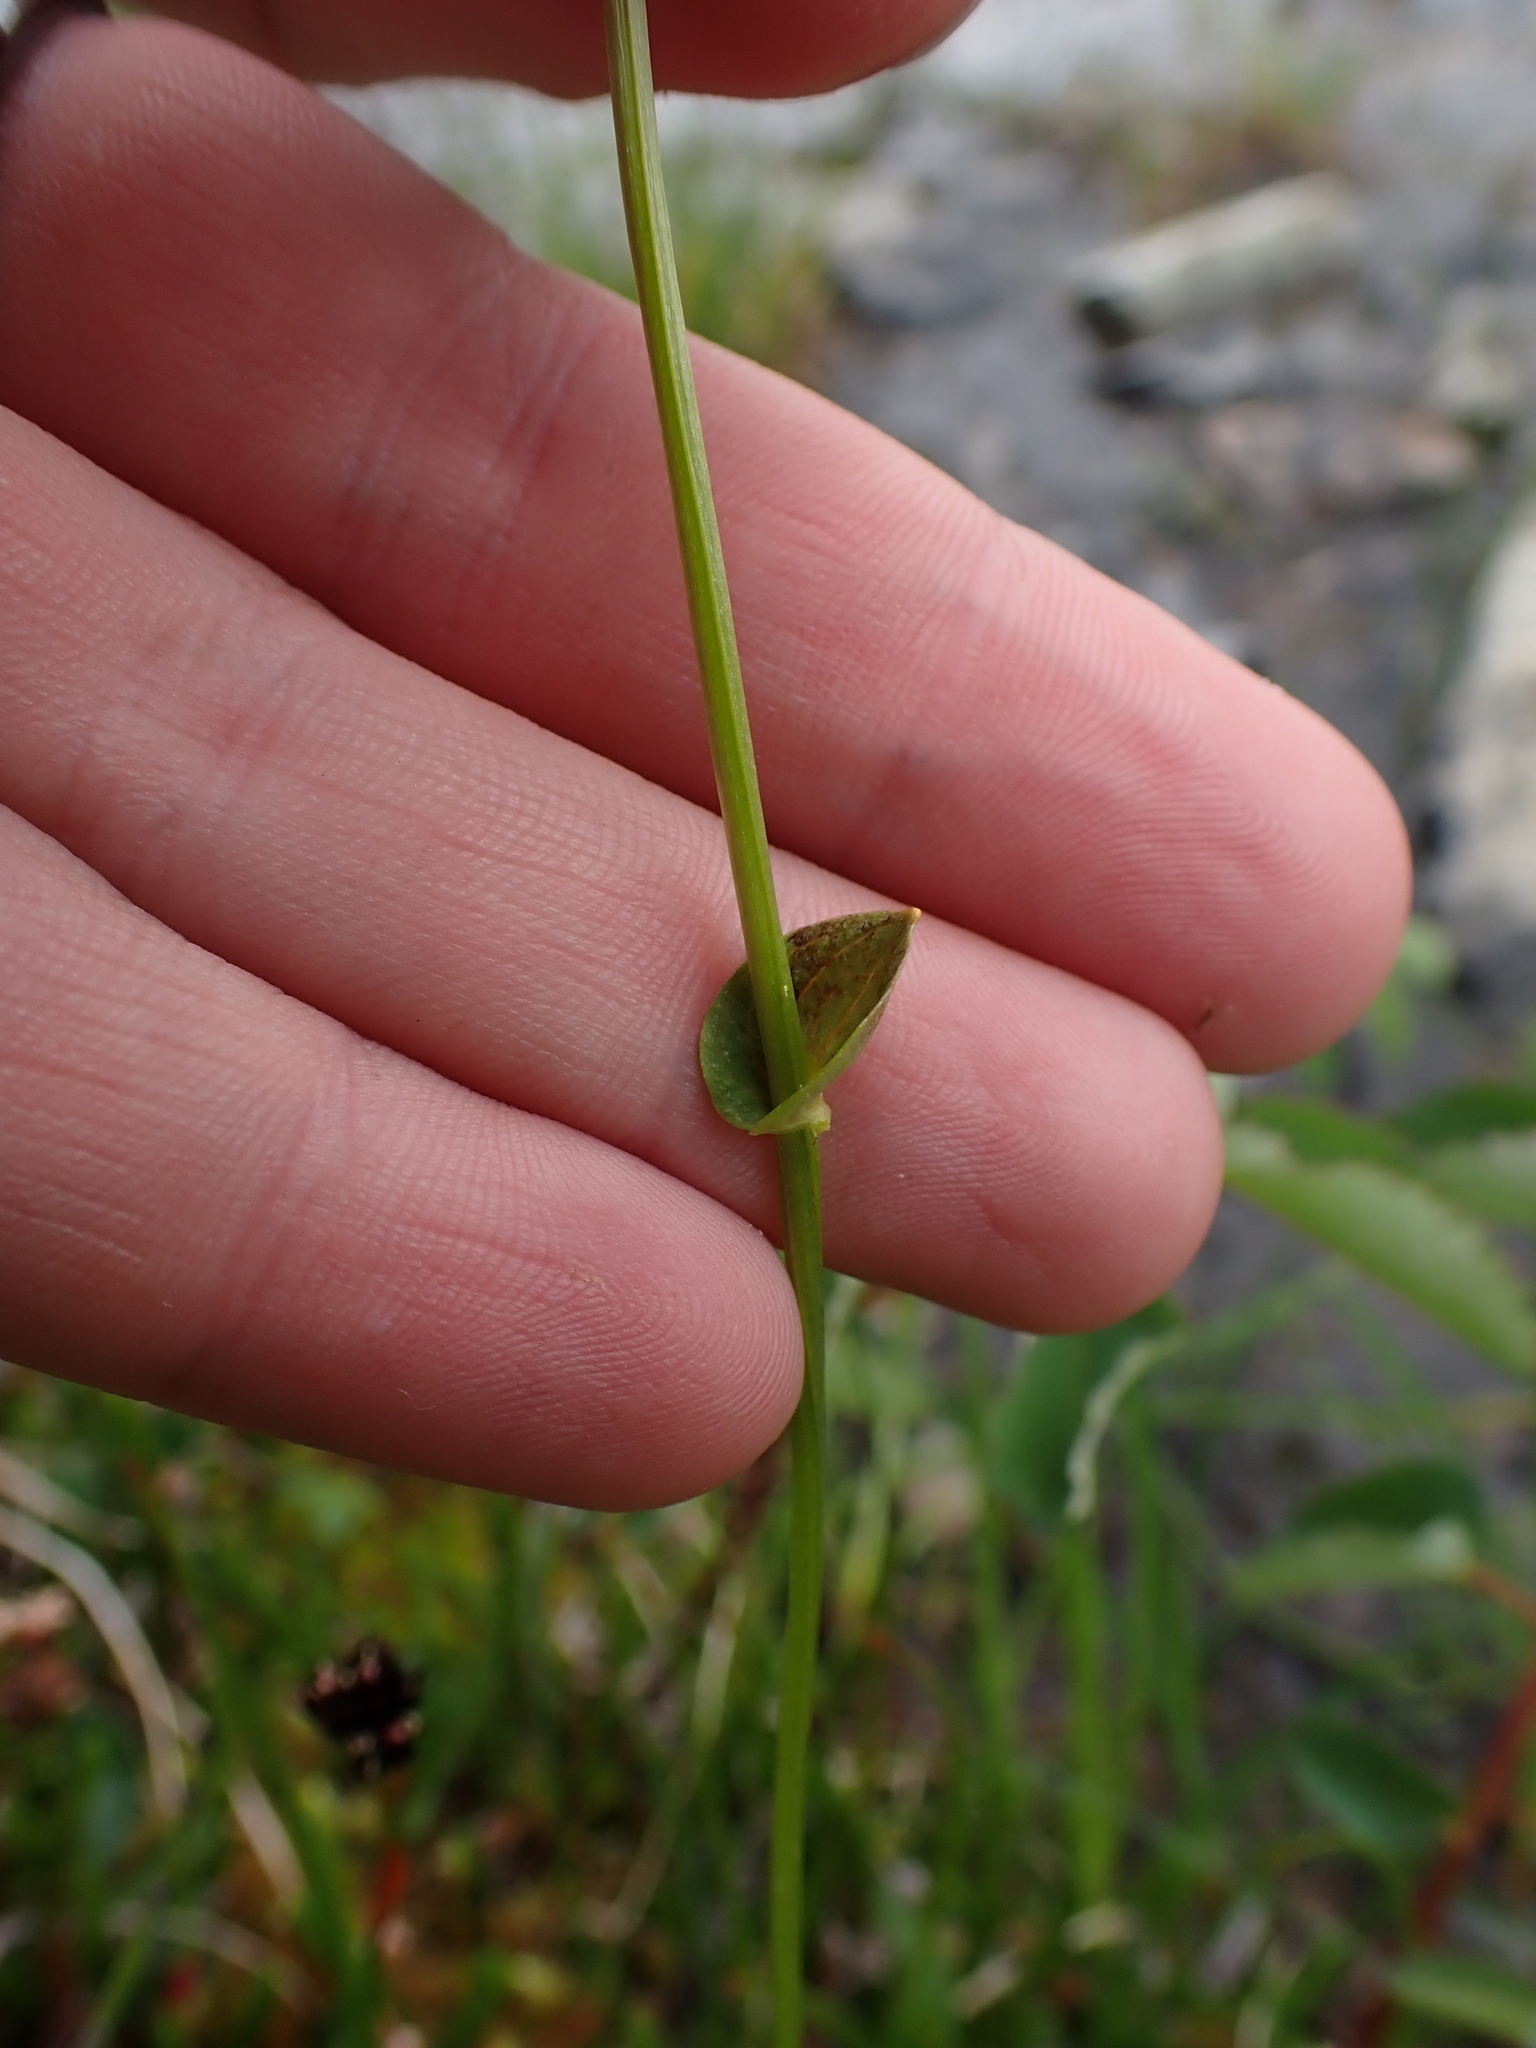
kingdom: Plantae
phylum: Tracheophyta
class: Magnoliopsida
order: Celastrales
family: Parnassiaceae
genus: Parnassia
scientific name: Parnassia fimbriata
